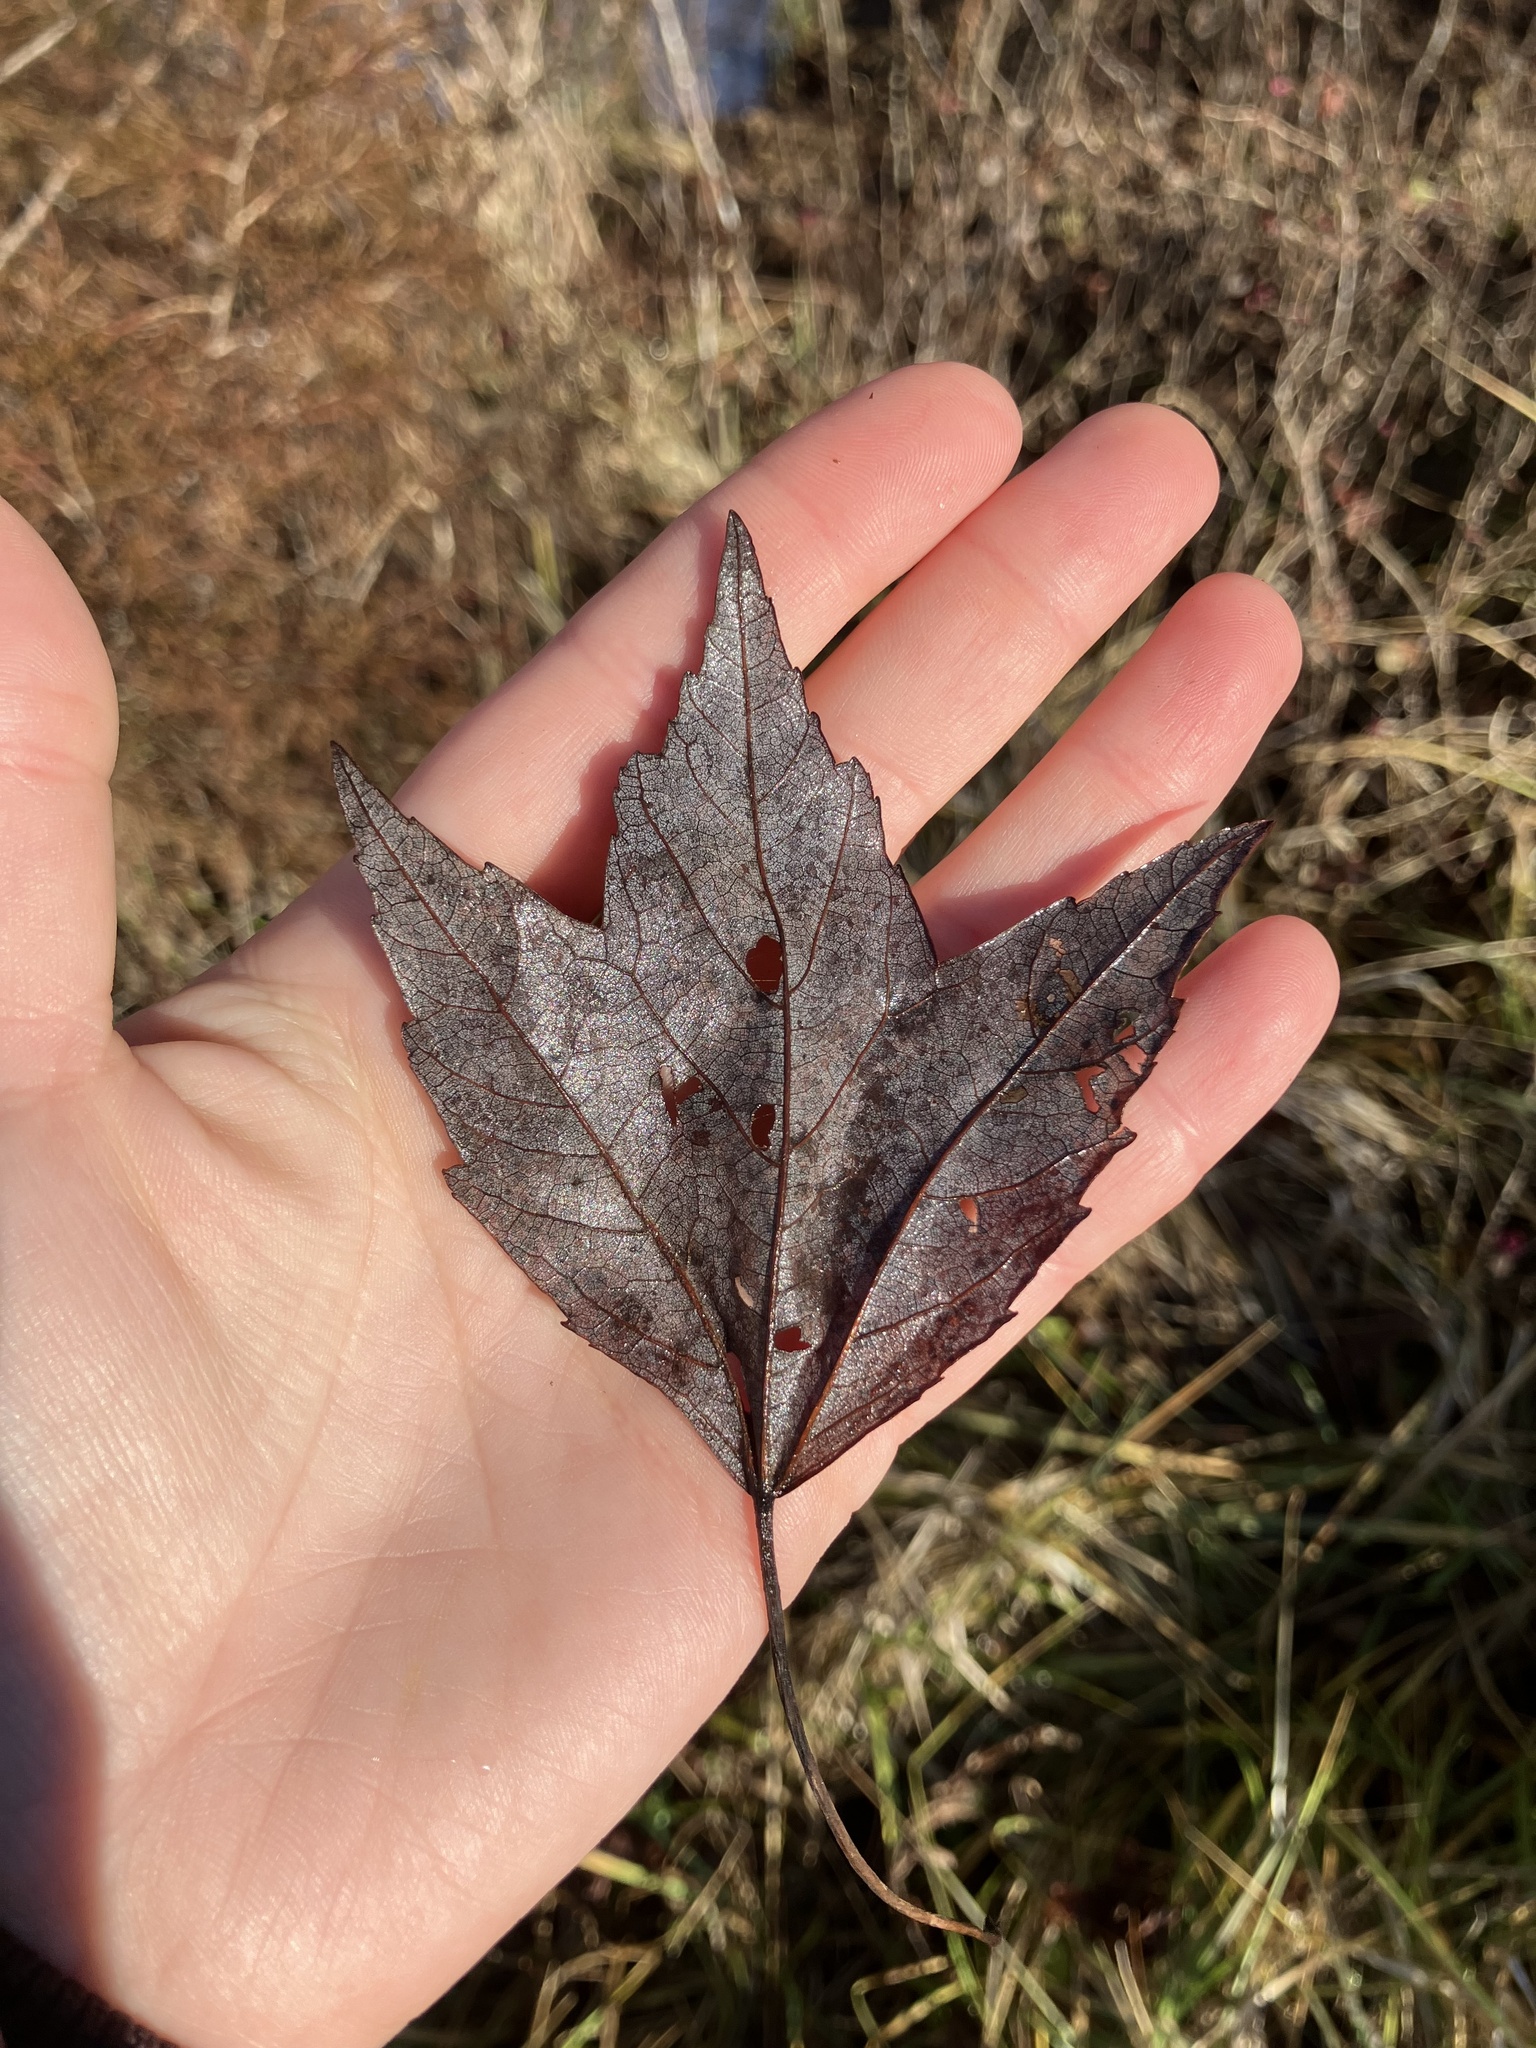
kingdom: Plantae
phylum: Tracheophyta
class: Magnoliopsida
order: Sapindales
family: Sapindaceae
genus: Acer
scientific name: Acer rubrum
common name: Red maple
